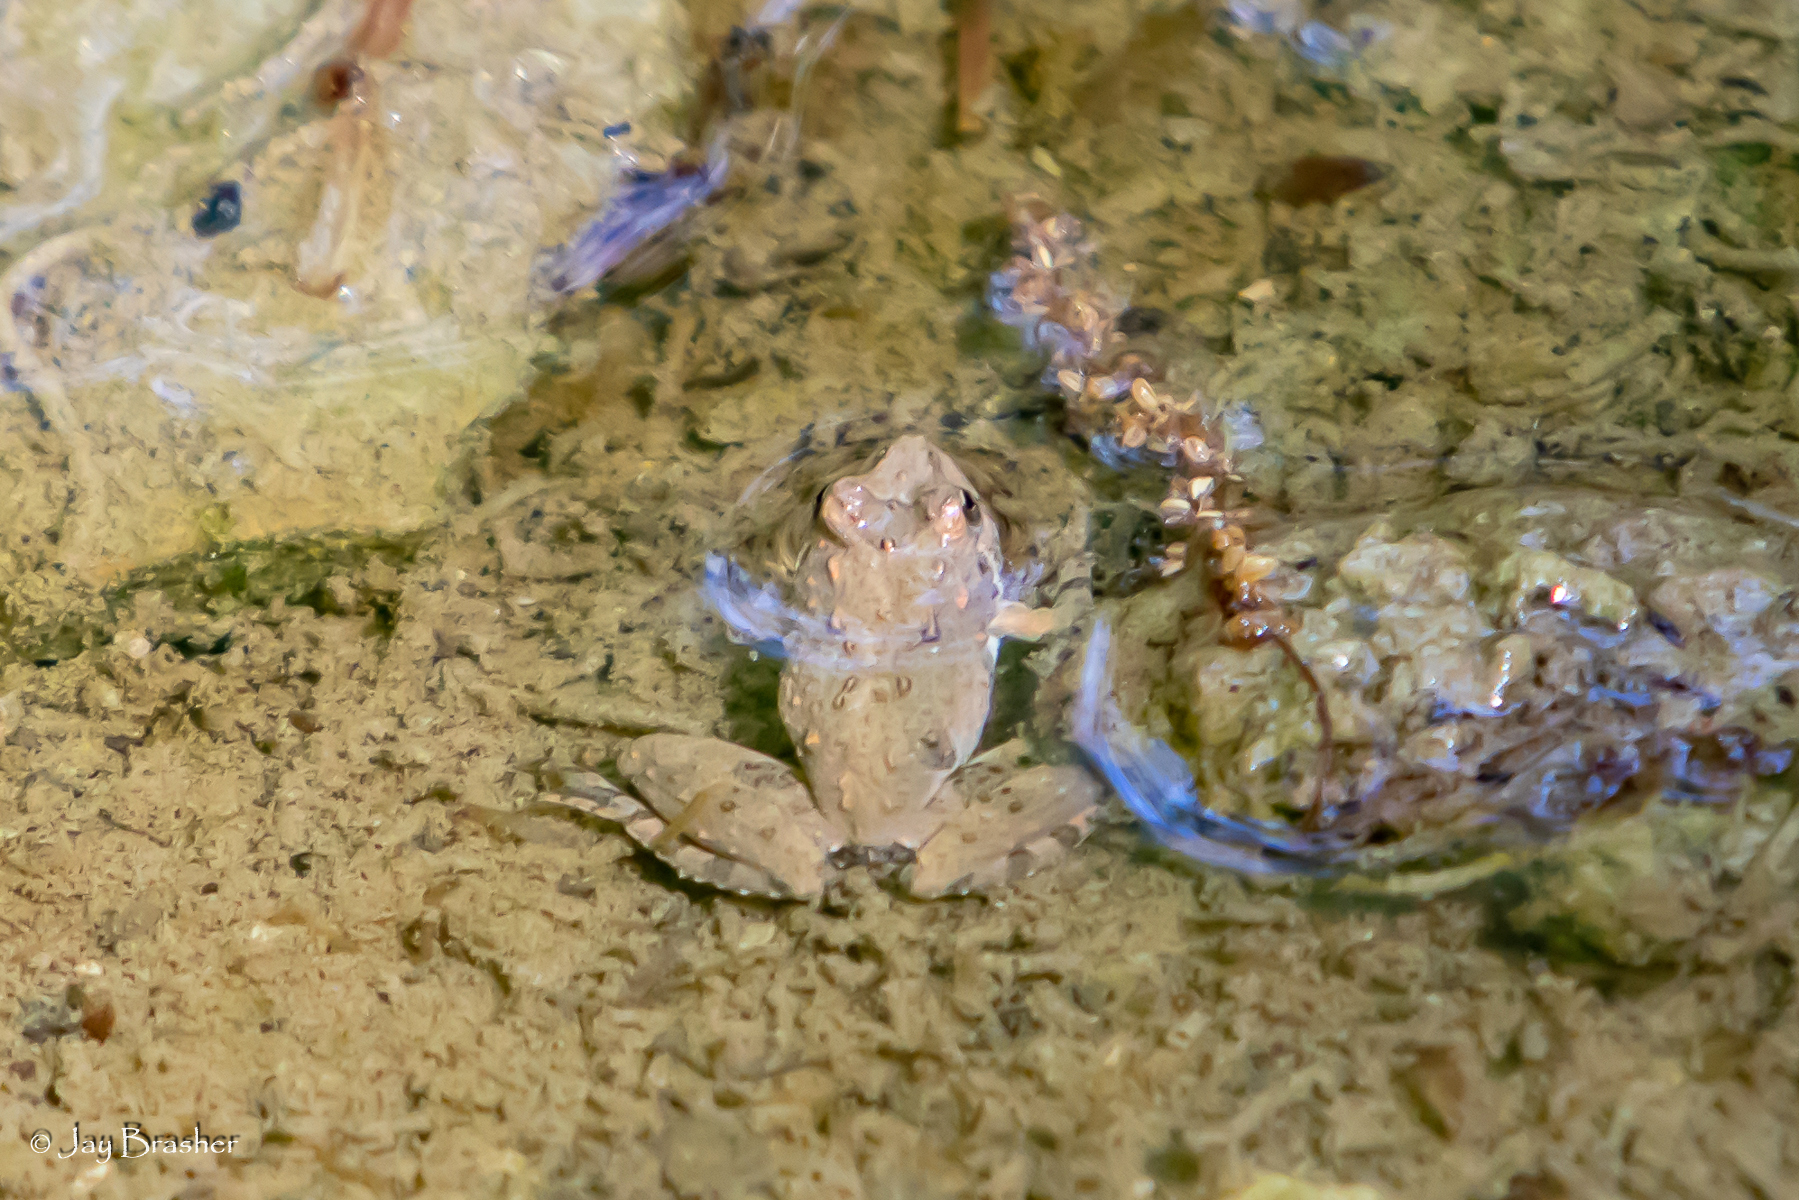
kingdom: Animalia
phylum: Chordata
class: Amphibia
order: Anura
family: Hylidae
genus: Acris
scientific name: Acris crepitans
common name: Northern cricket frog
